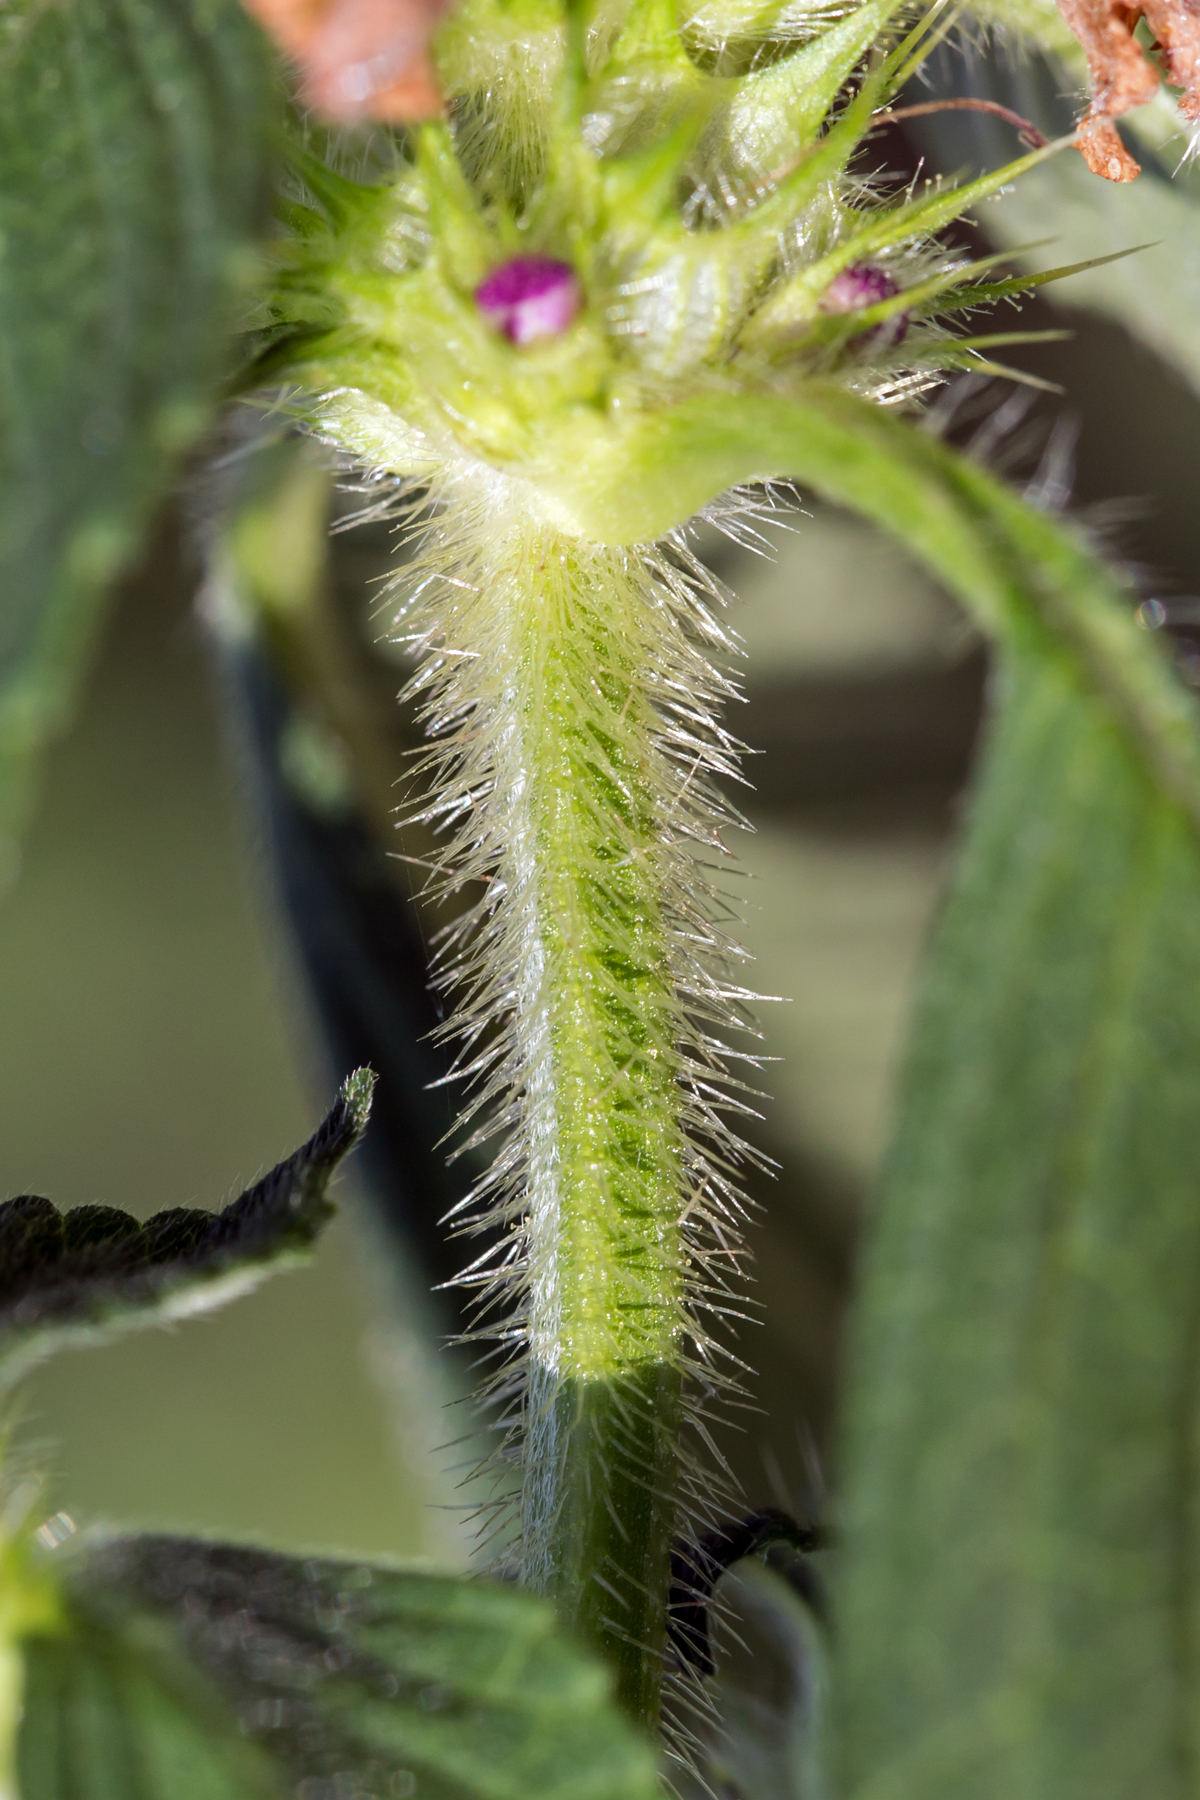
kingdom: Plantae
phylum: Tracheophyta
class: Magnoliopsida
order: Lamiales
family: Lamiaceae
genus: Galeopsis
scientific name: Galeopsis bifida
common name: Bifid hemp-nettle
